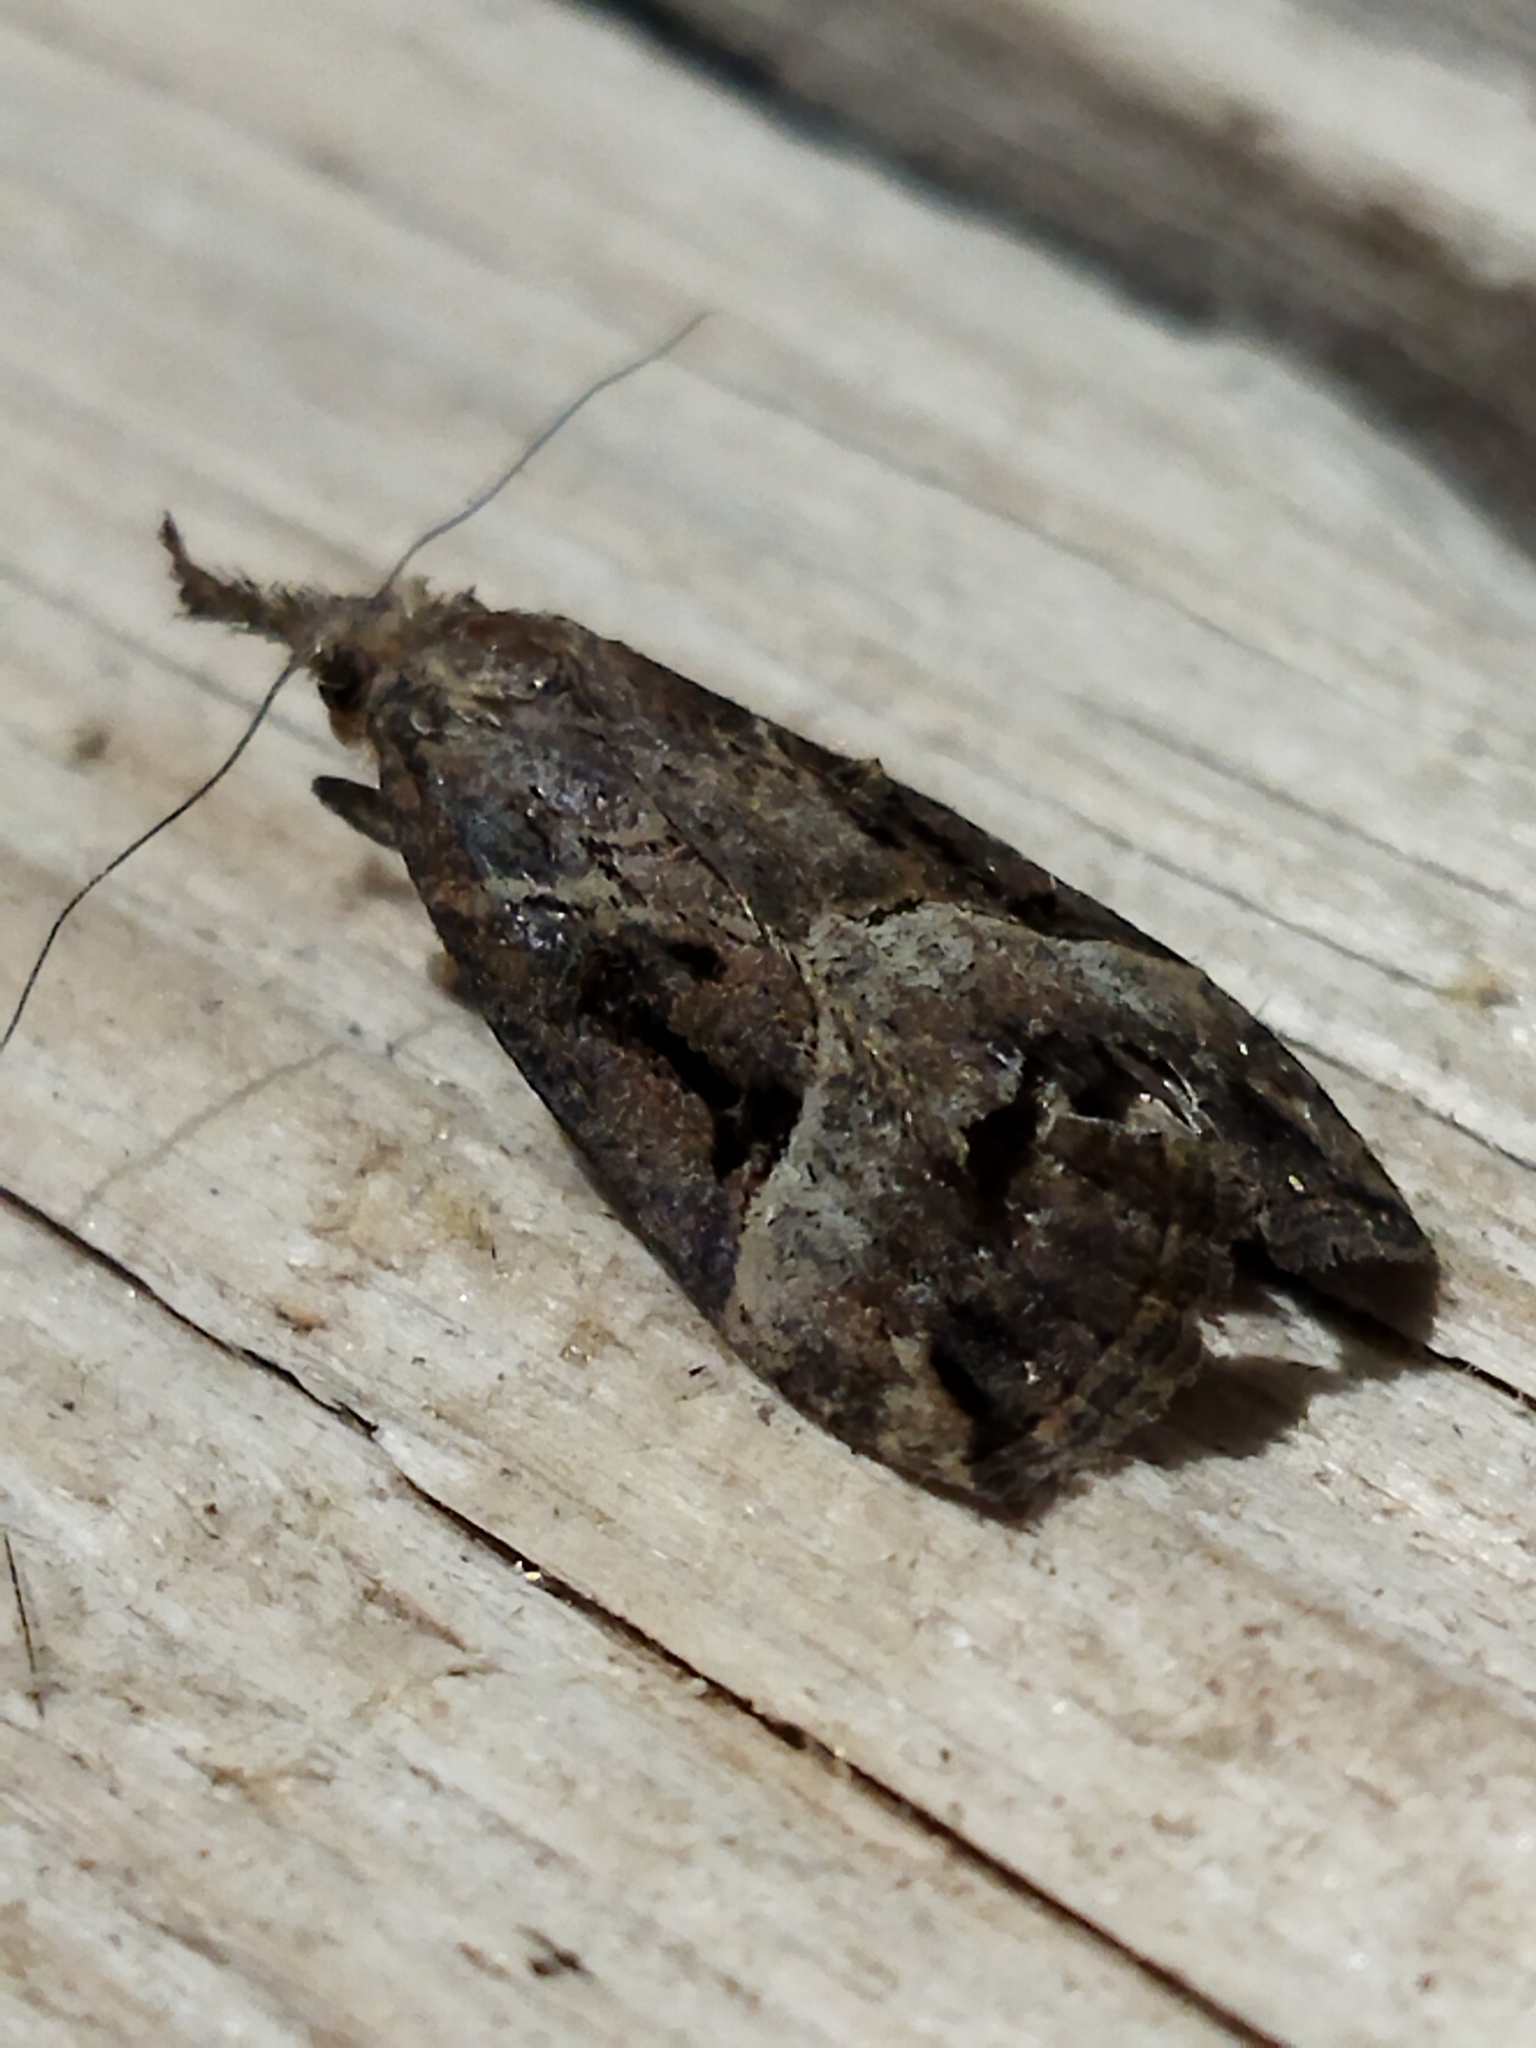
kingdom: Animalia
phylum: Arthropoda
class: Insecta
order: Lepidoptera
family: Erebidae
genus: Hypena
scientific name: Hypena rostralis
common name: Buttoned snout
